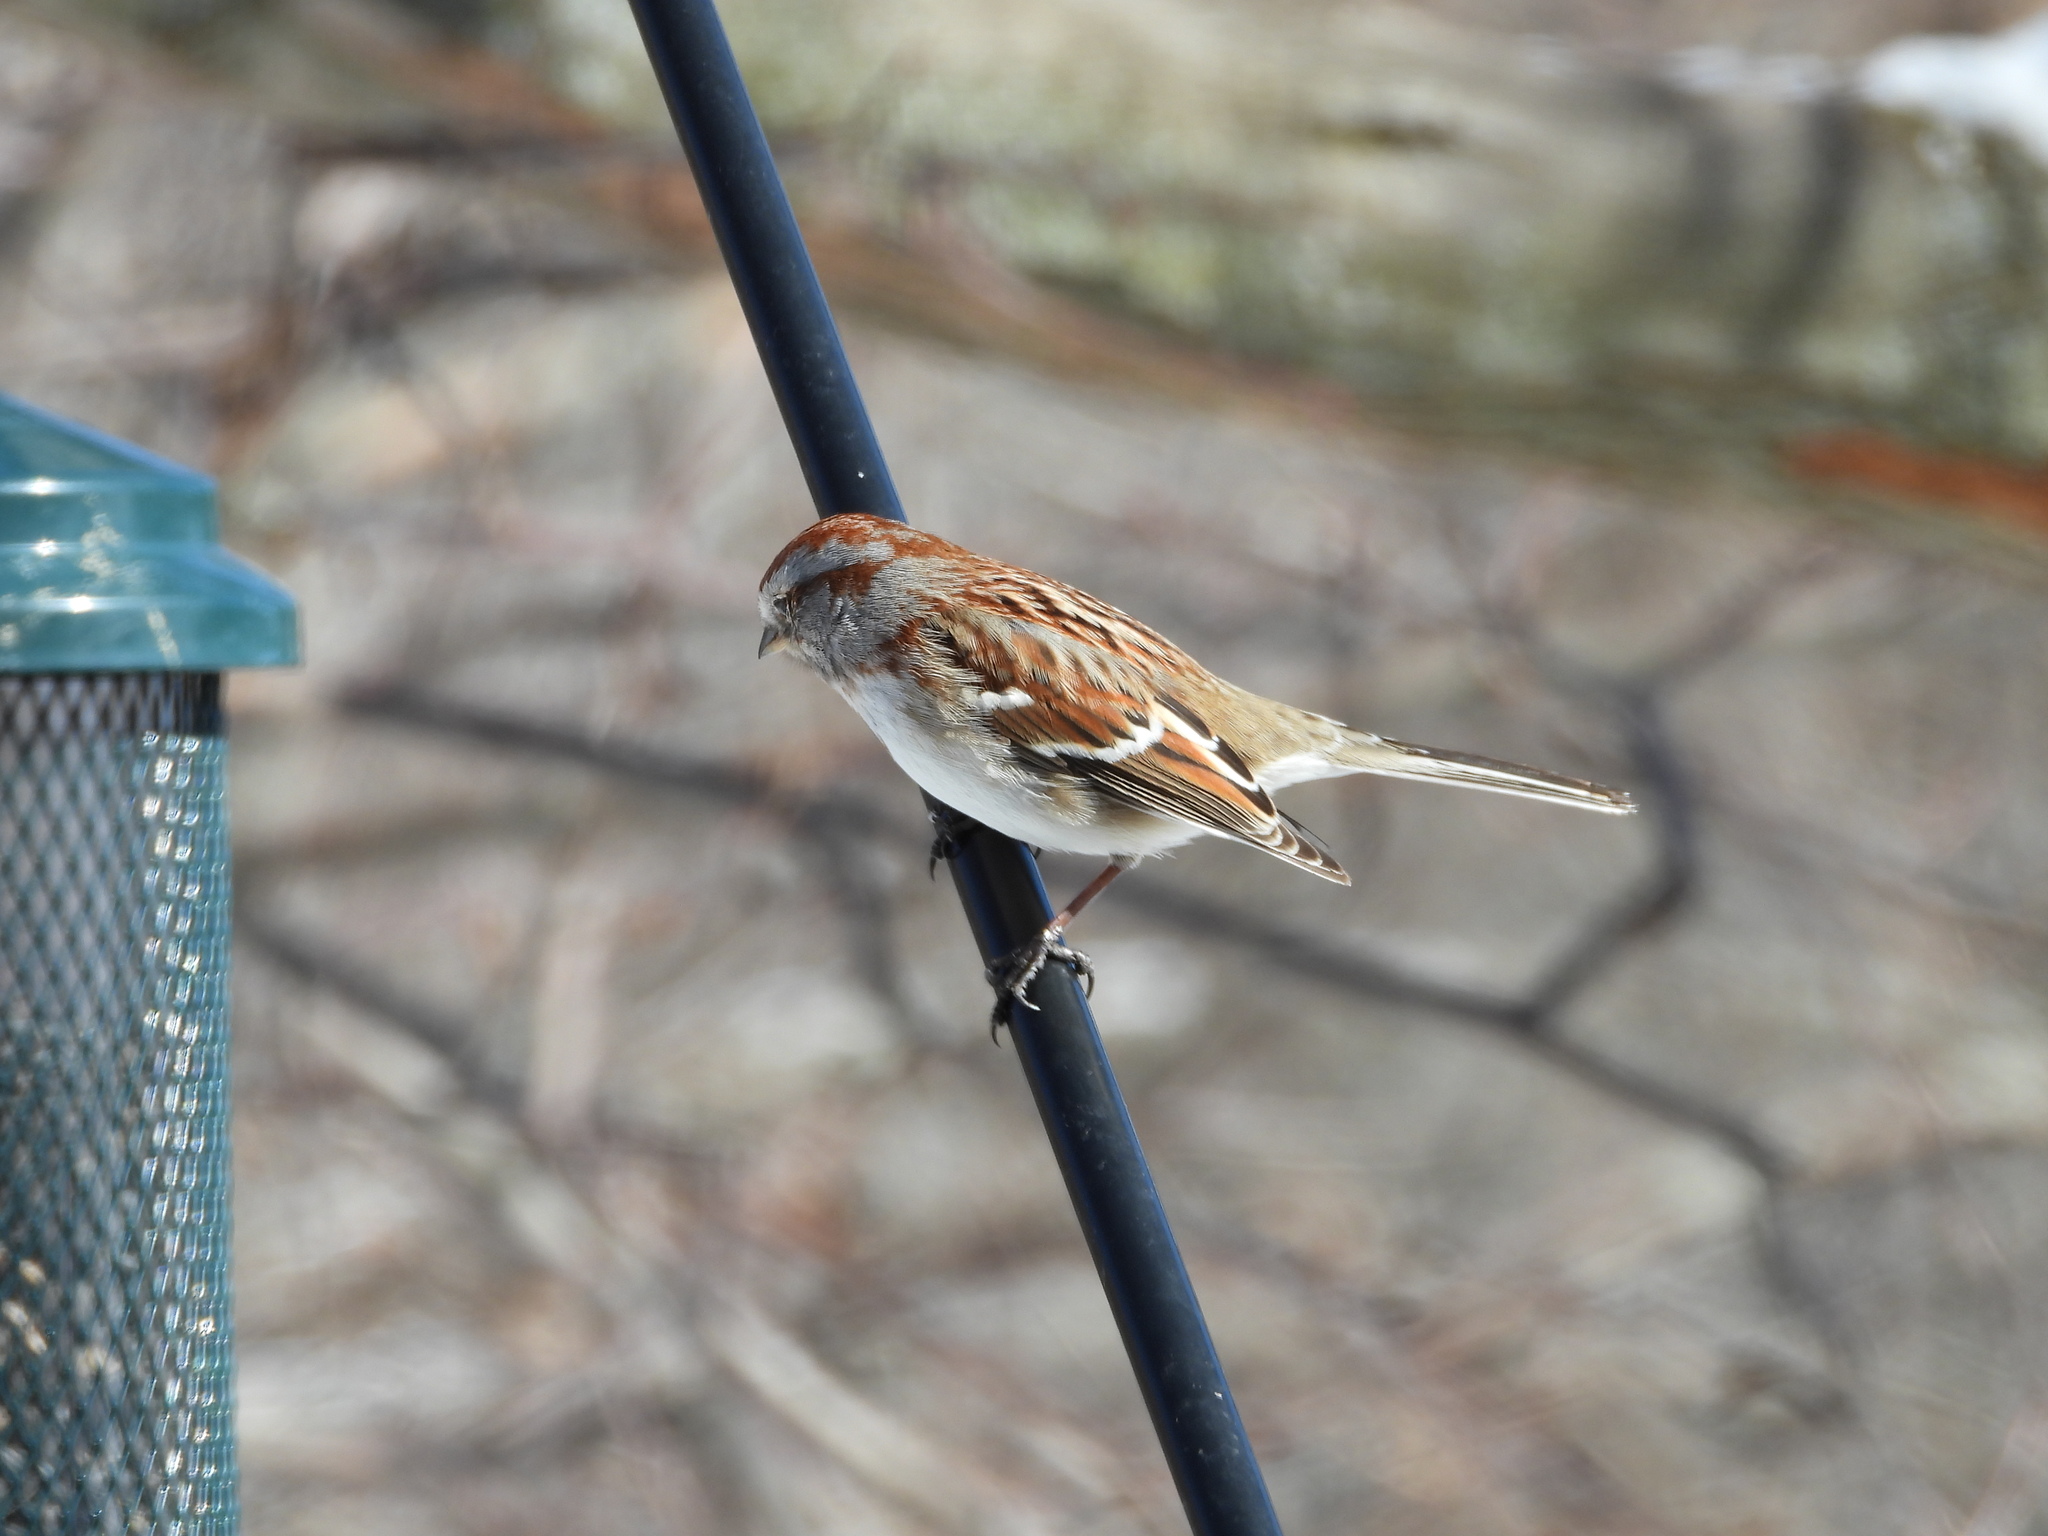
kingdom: Animalia
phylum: Chordata
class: Aves
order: Passeriformes
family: Passerellidae
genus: Spizelloides
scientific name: Spizelloides arborea
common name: American tree sparrow
